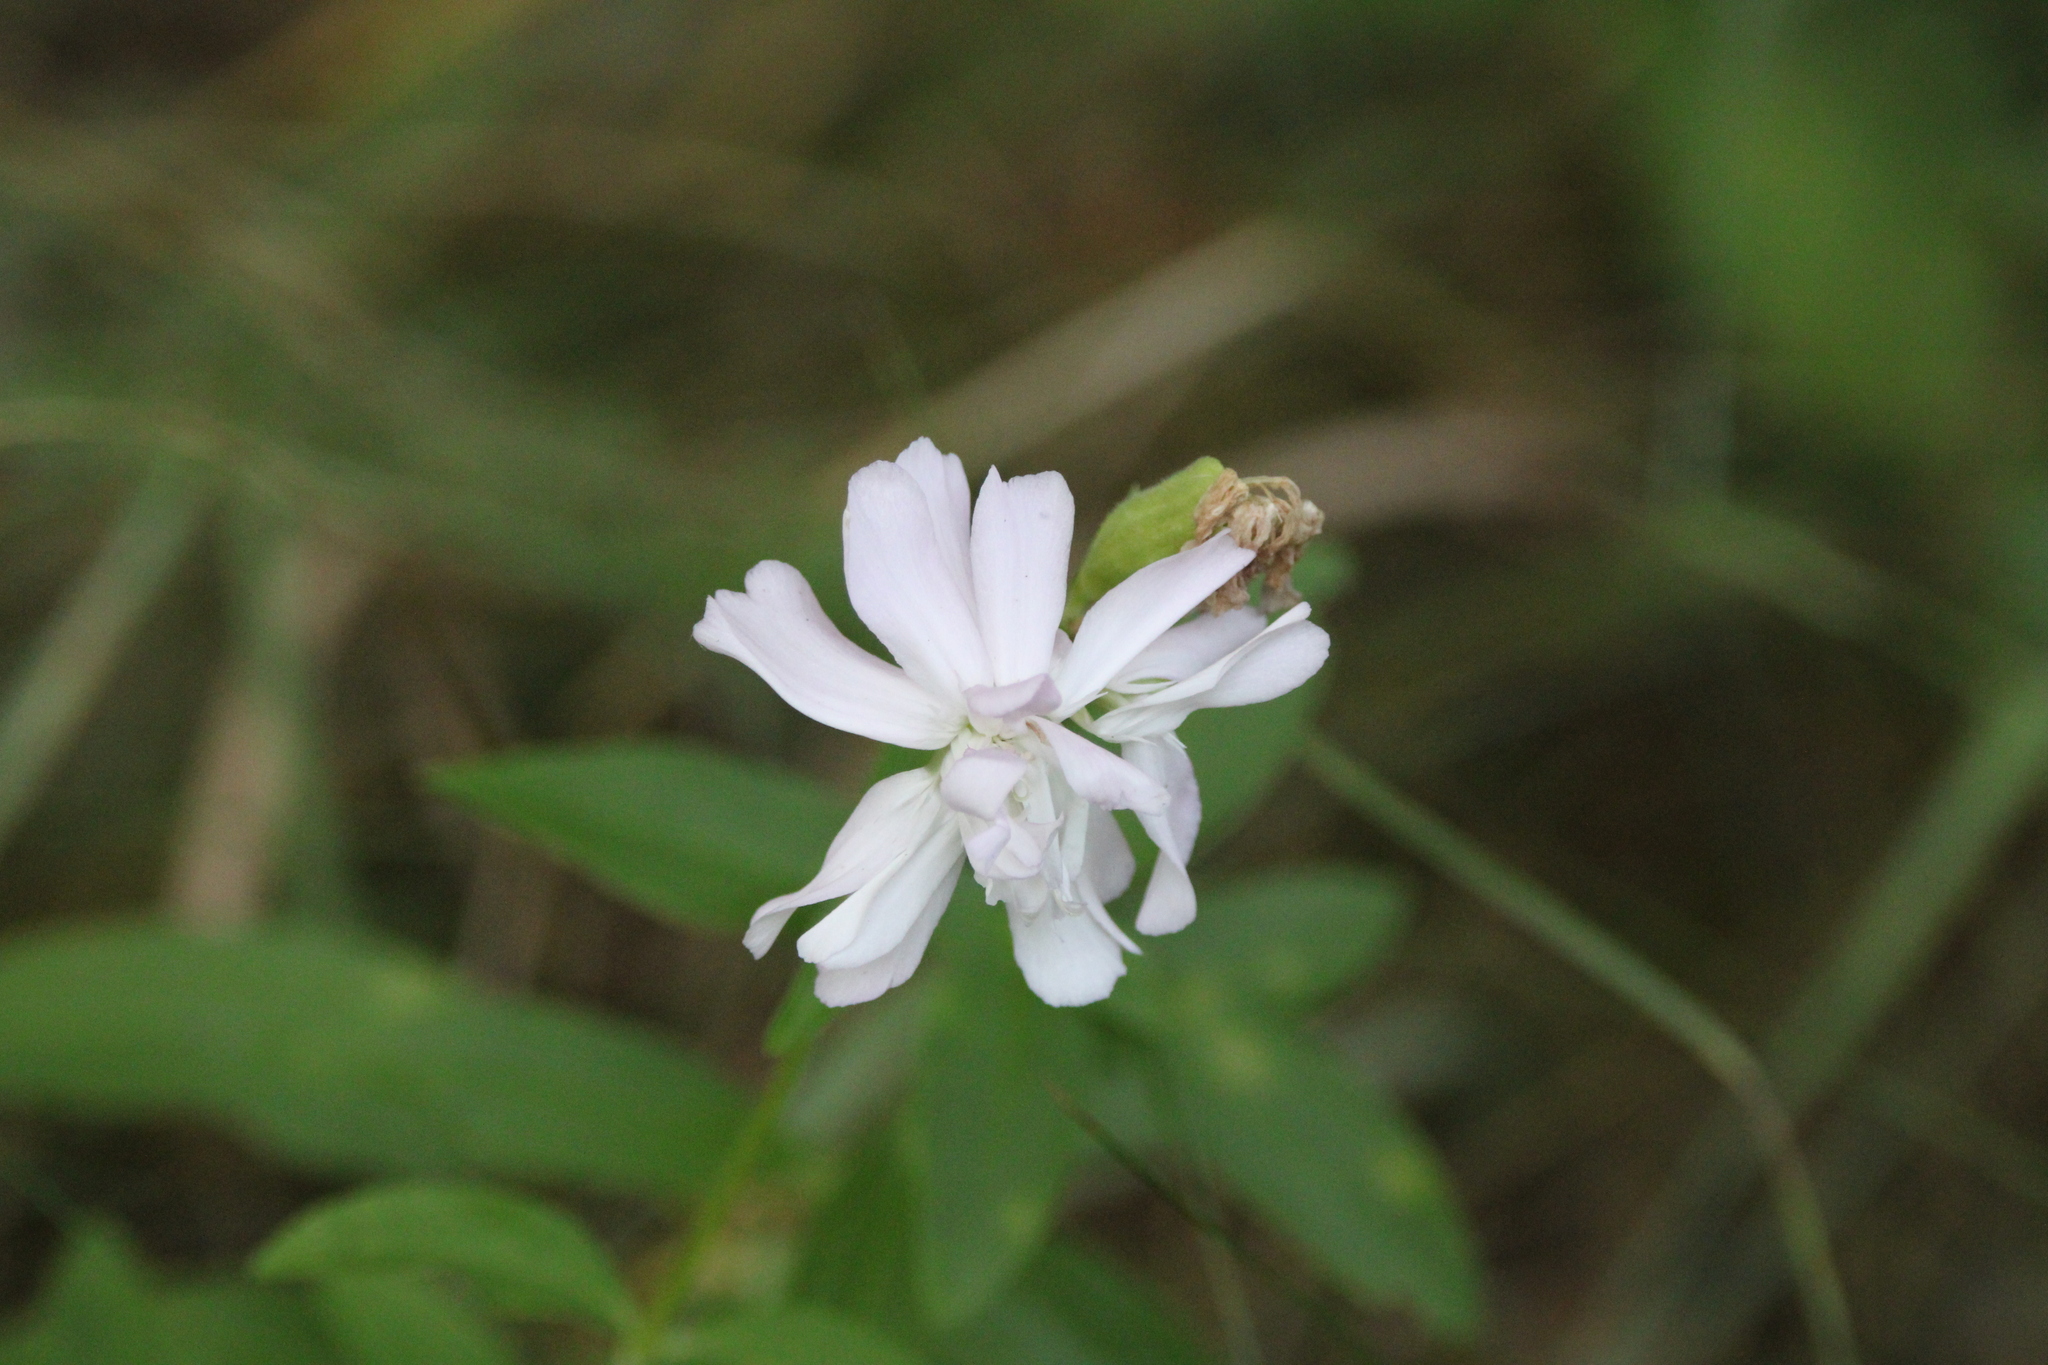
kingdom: Plantae
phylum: Tracheophyta
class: Magnoliopsida
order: Caryophyllales
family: Caryophyllaceae
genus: Saponaria
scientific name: Saponaria officinalis
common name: Soapwort
